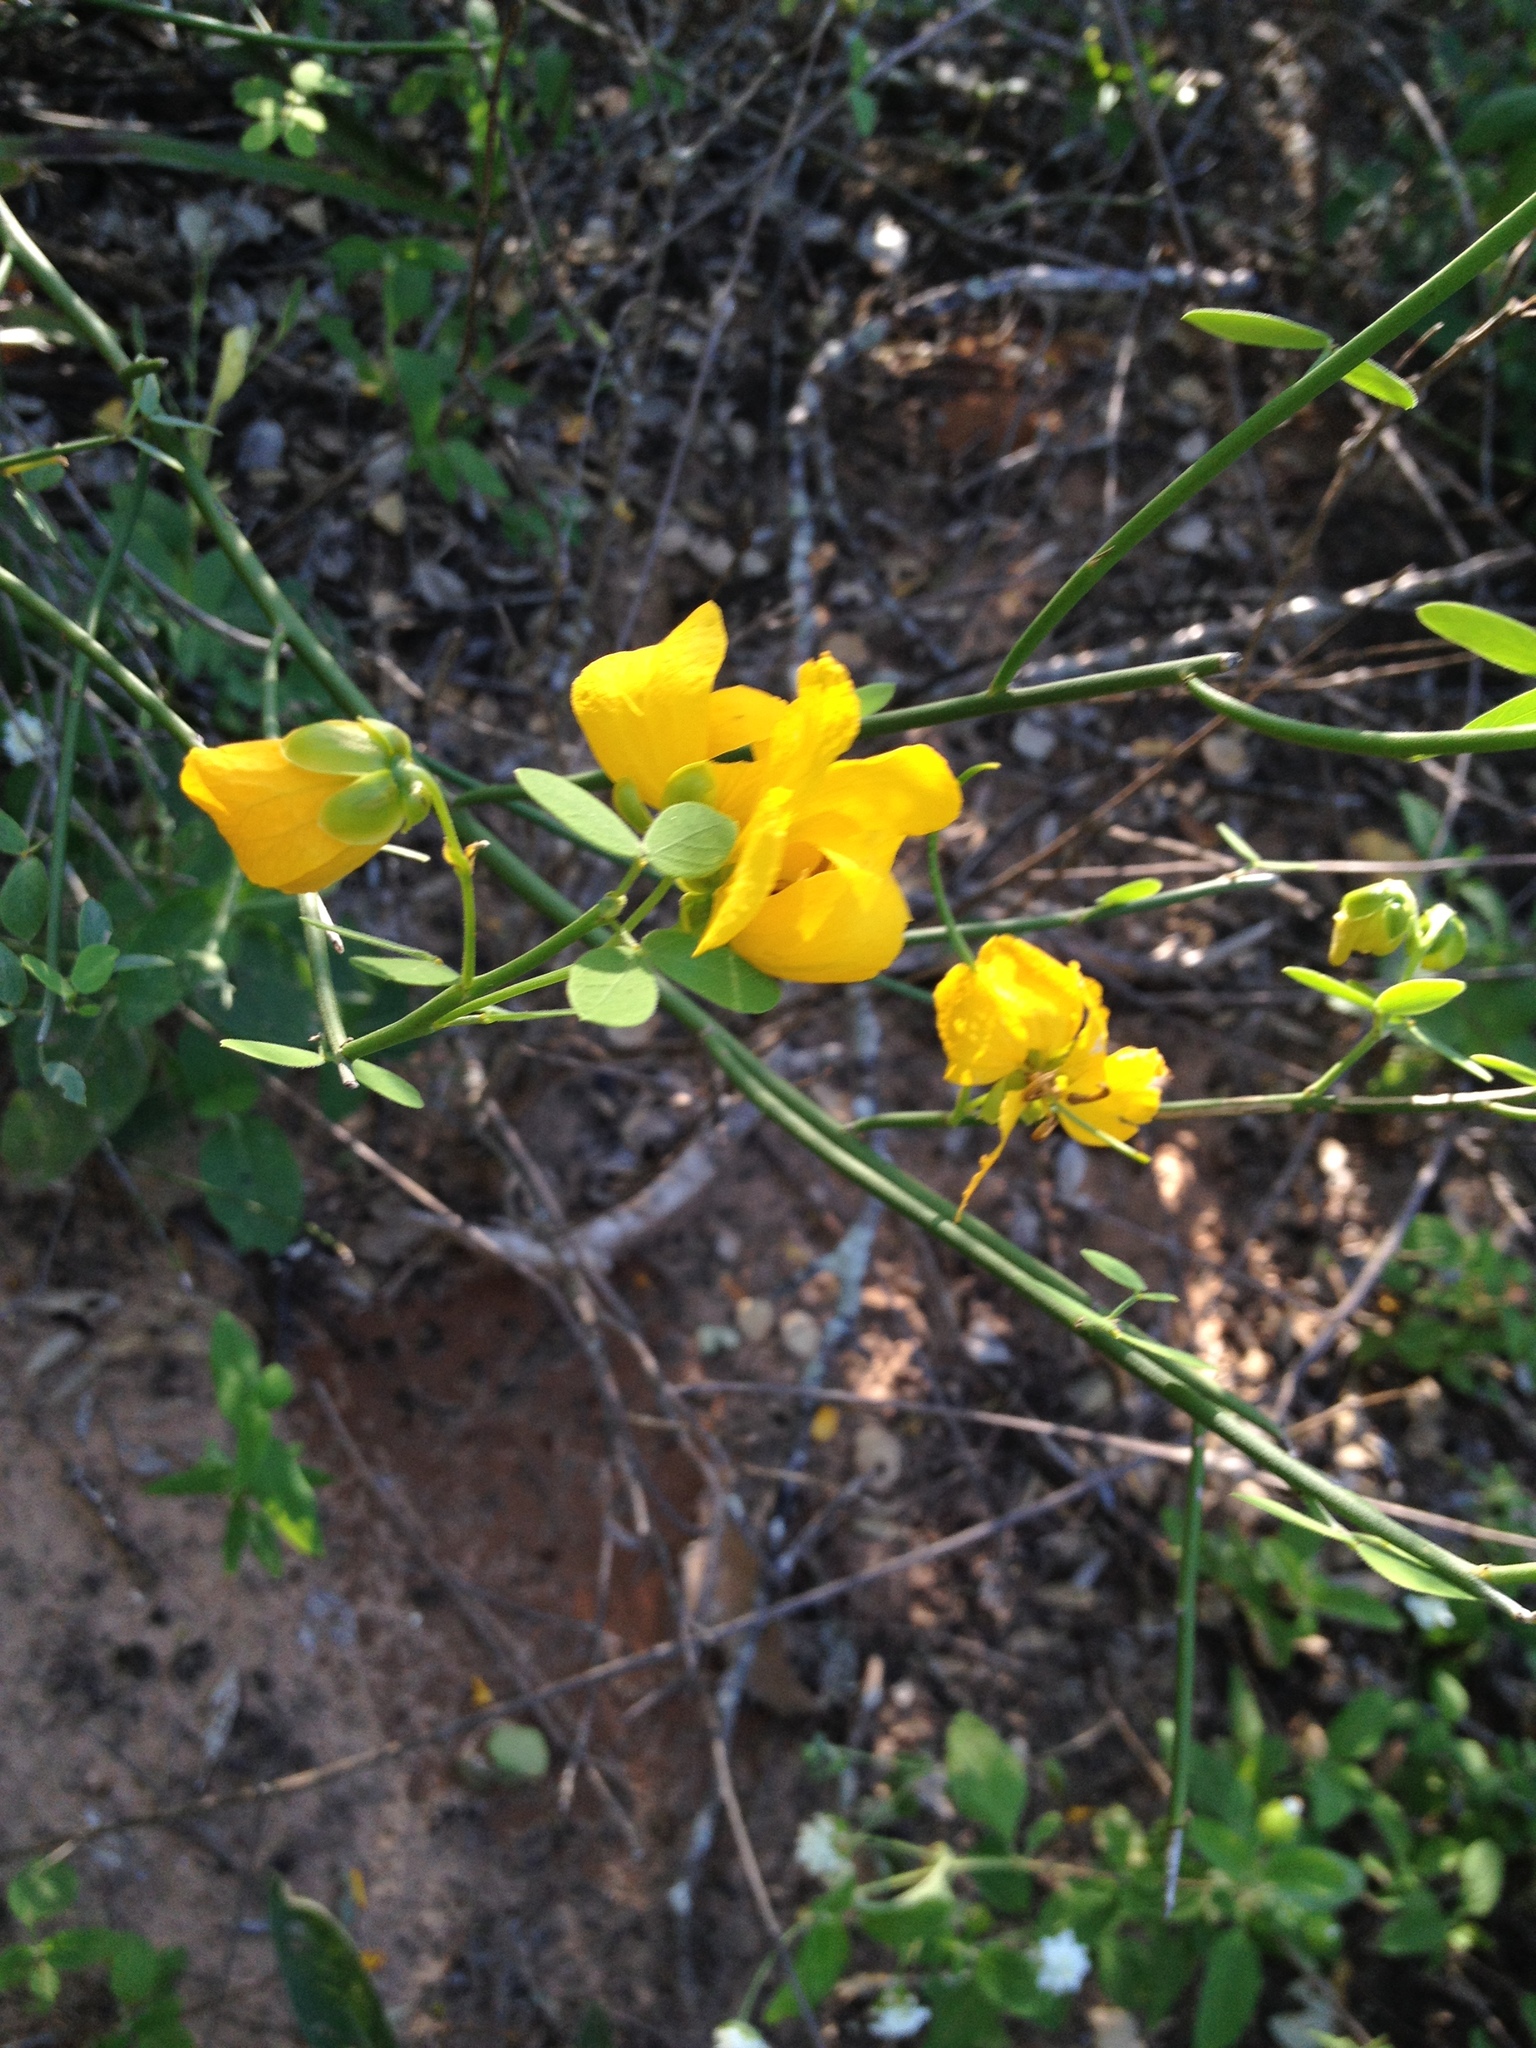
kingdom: Plantae
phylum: Tracheophyta
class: Magnoliopsida
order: Fabales
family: Fabaceae
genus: Senna
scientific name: Senna chloroclada
